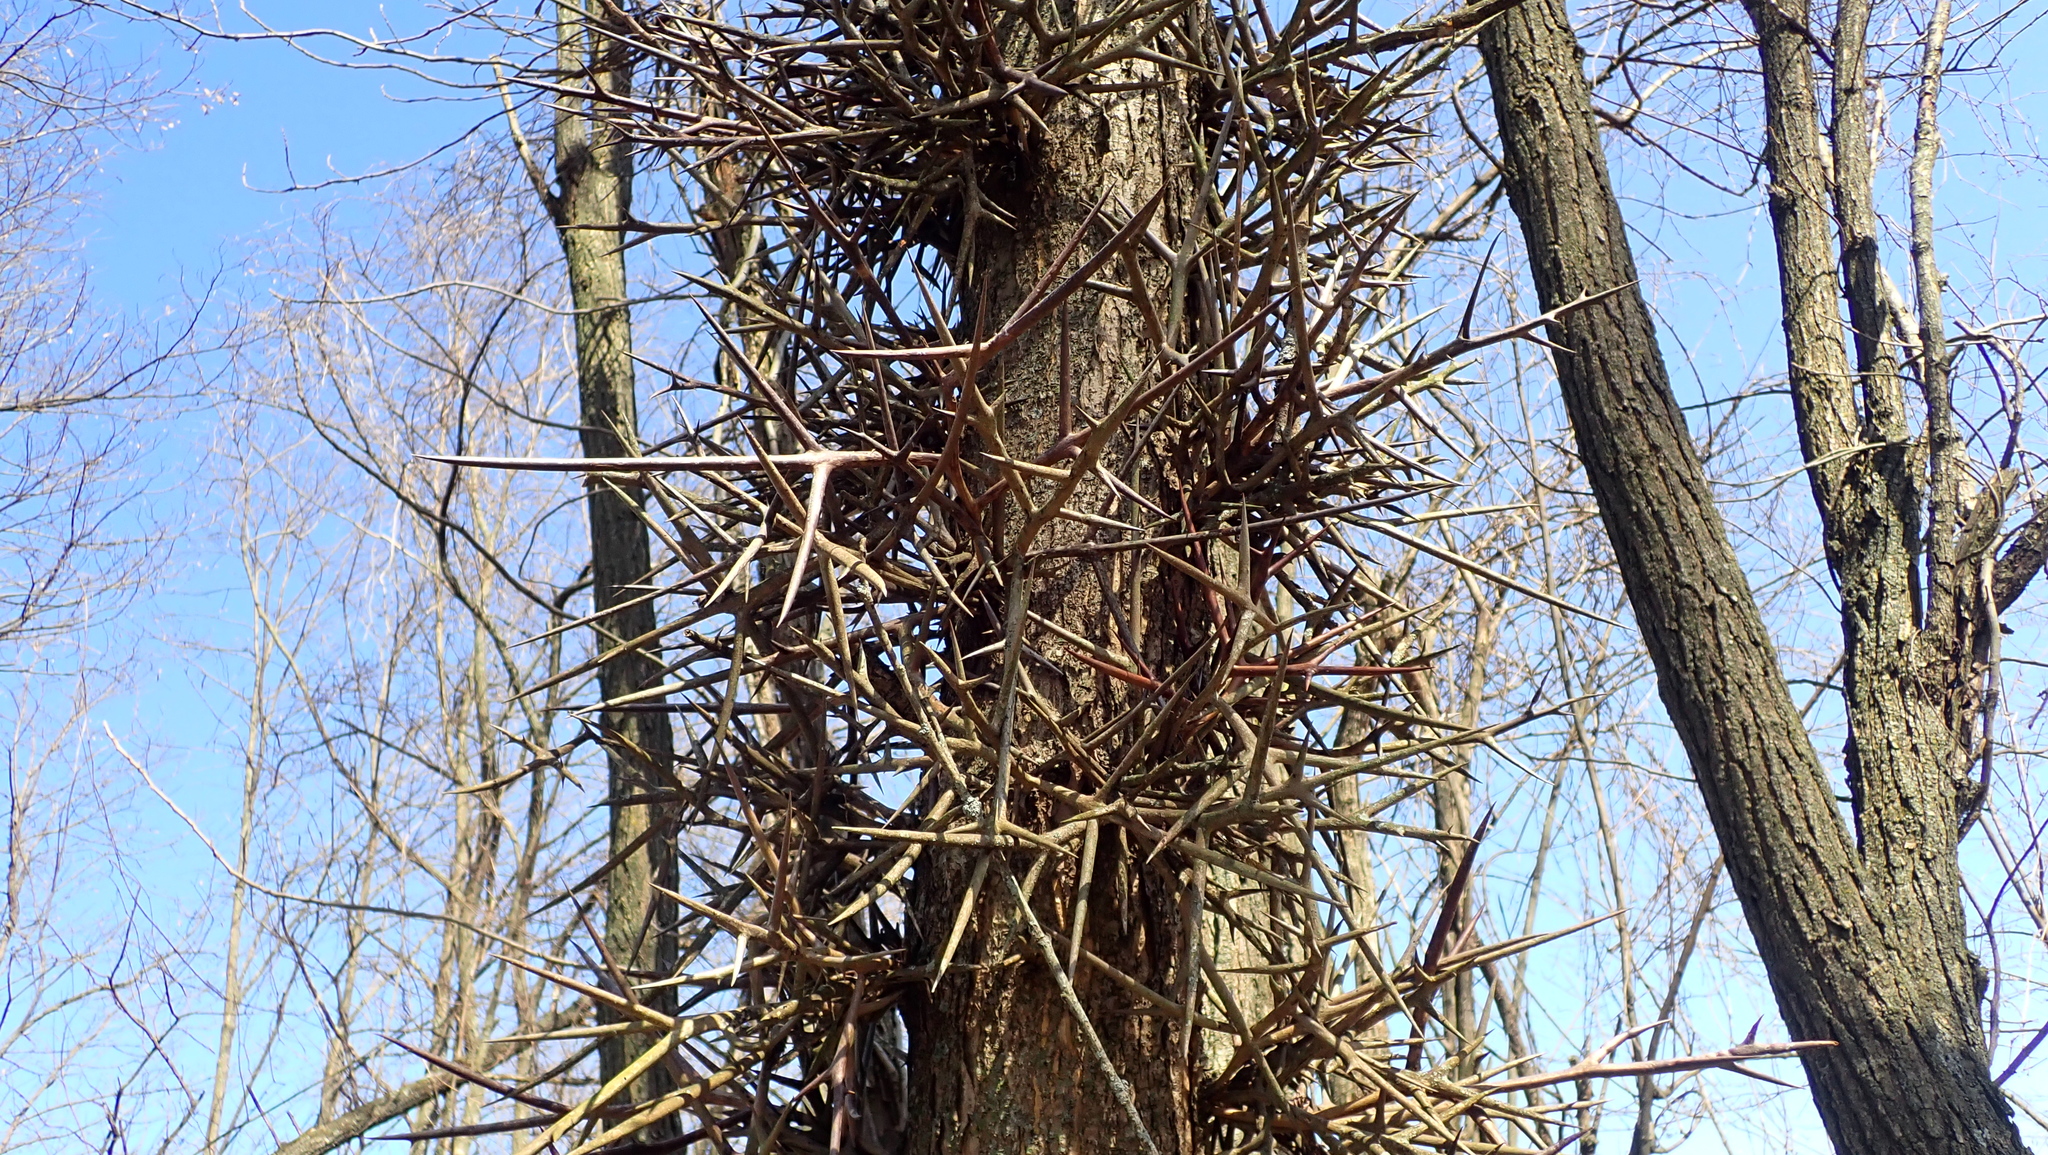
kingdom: Plantae
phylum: Tracheophyta
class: Magnoliopsida
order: Fabales
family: Fabaceae
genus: Gleditsia
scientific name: Gleditsia triacanthos
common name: Common honeylocust
